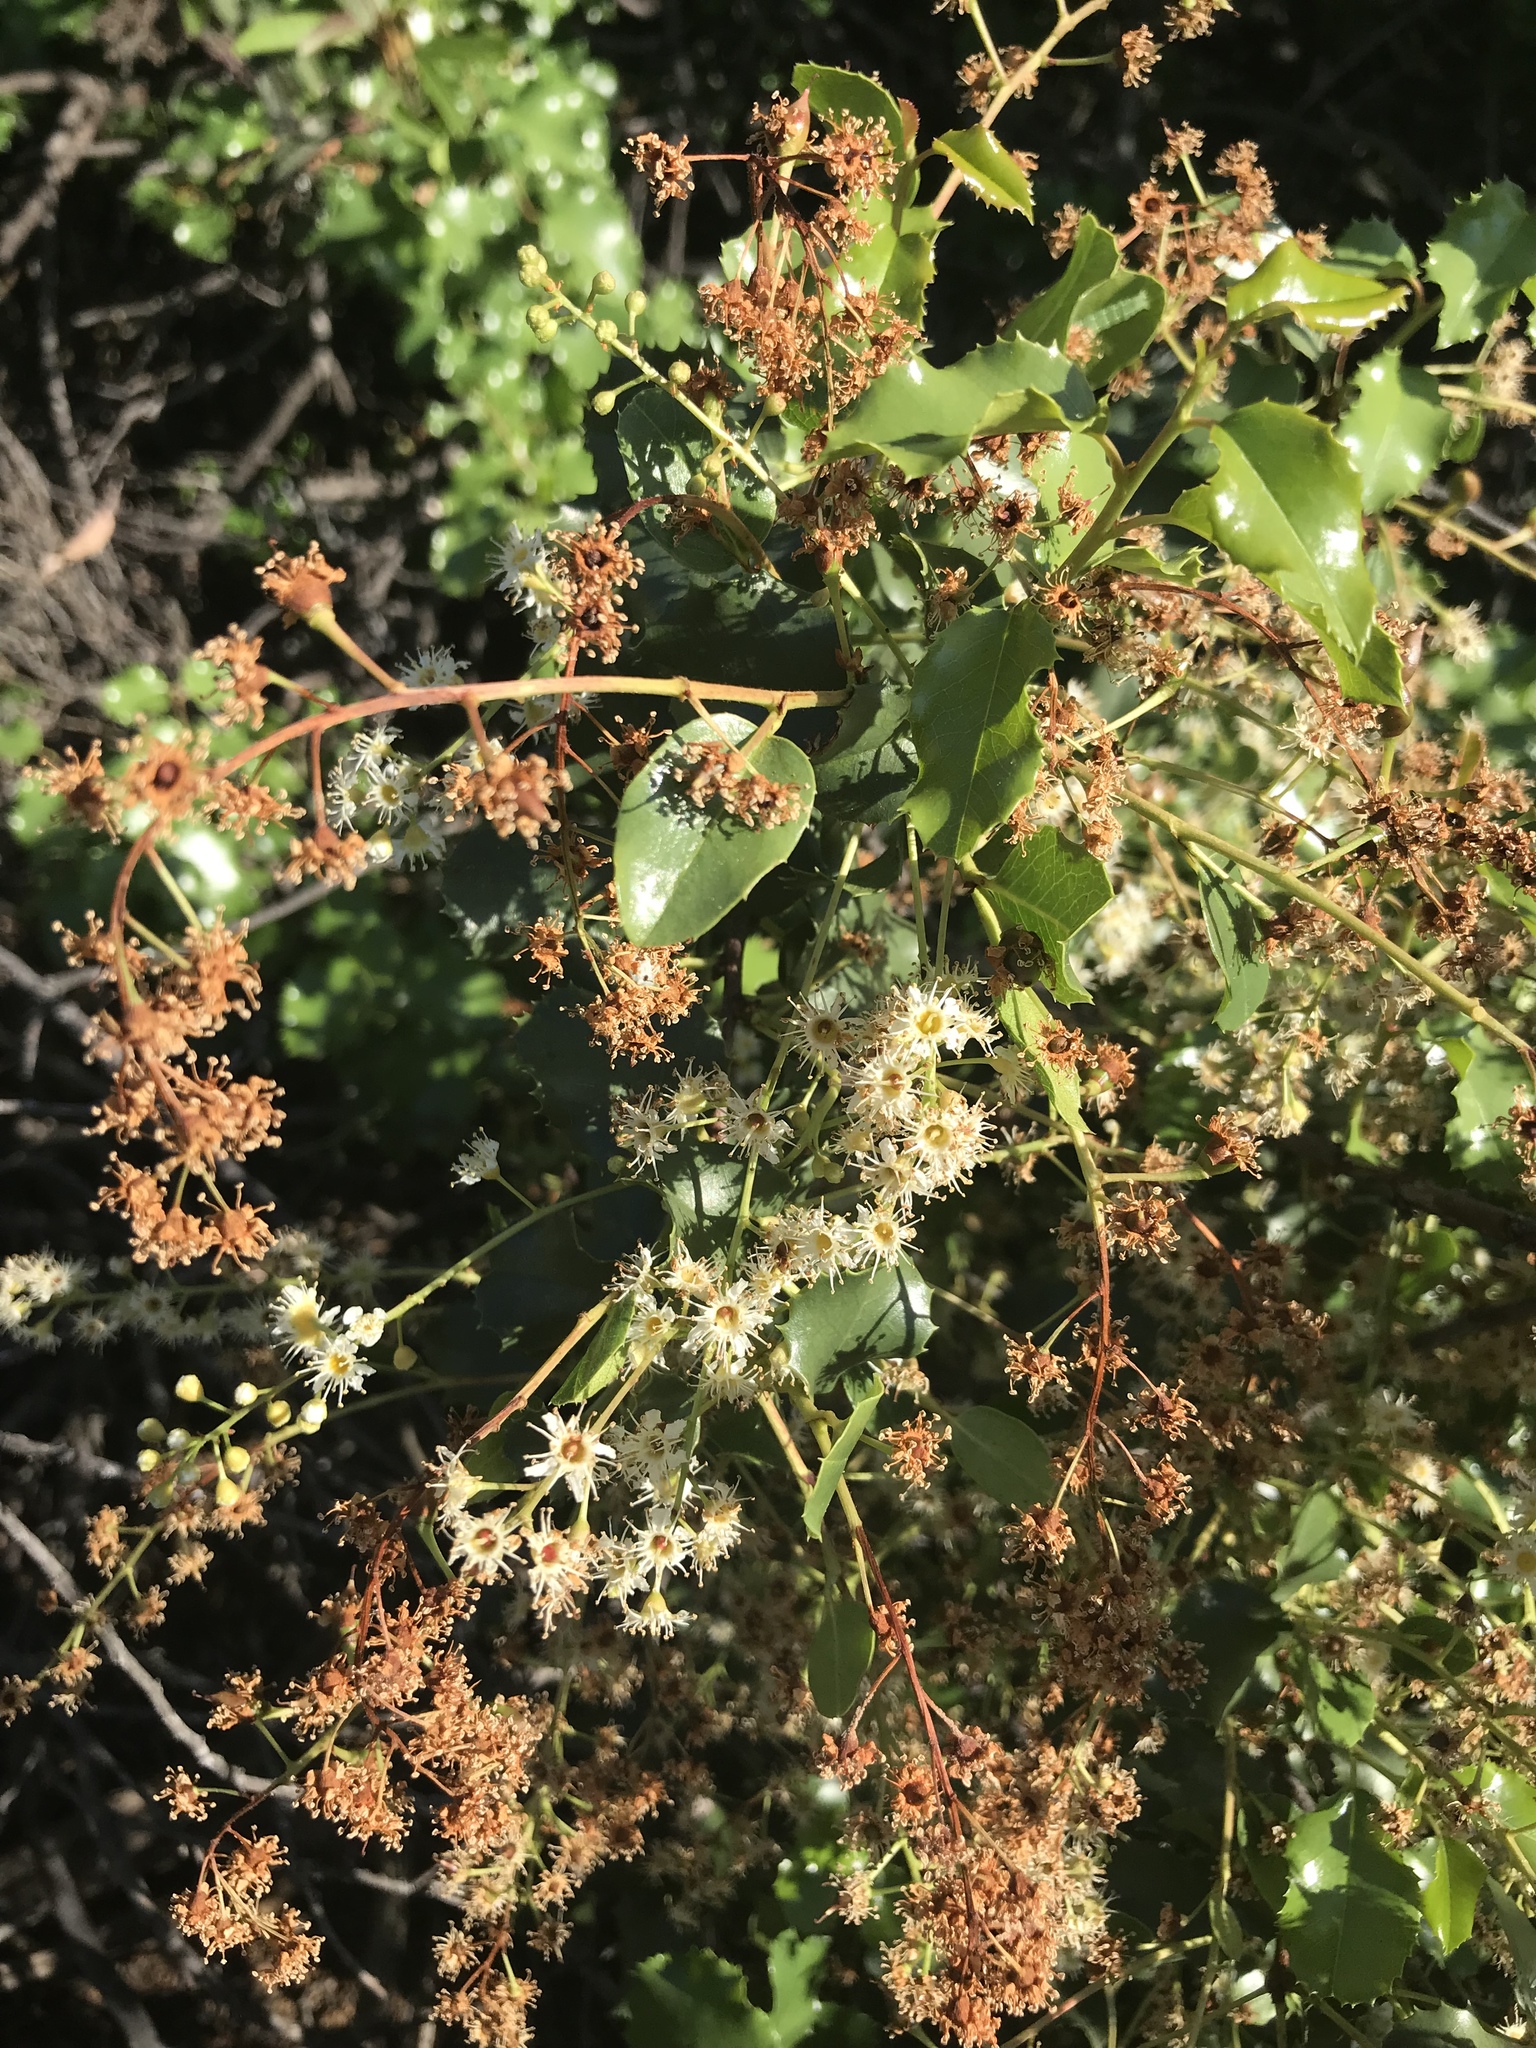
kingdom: Plantae
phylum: Tracheophyta
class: Magnoliopsida
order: Rosales
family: Rosaceae
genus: Prunus
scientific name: Prunus ilicifolia
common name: Hollyleaf cherry
